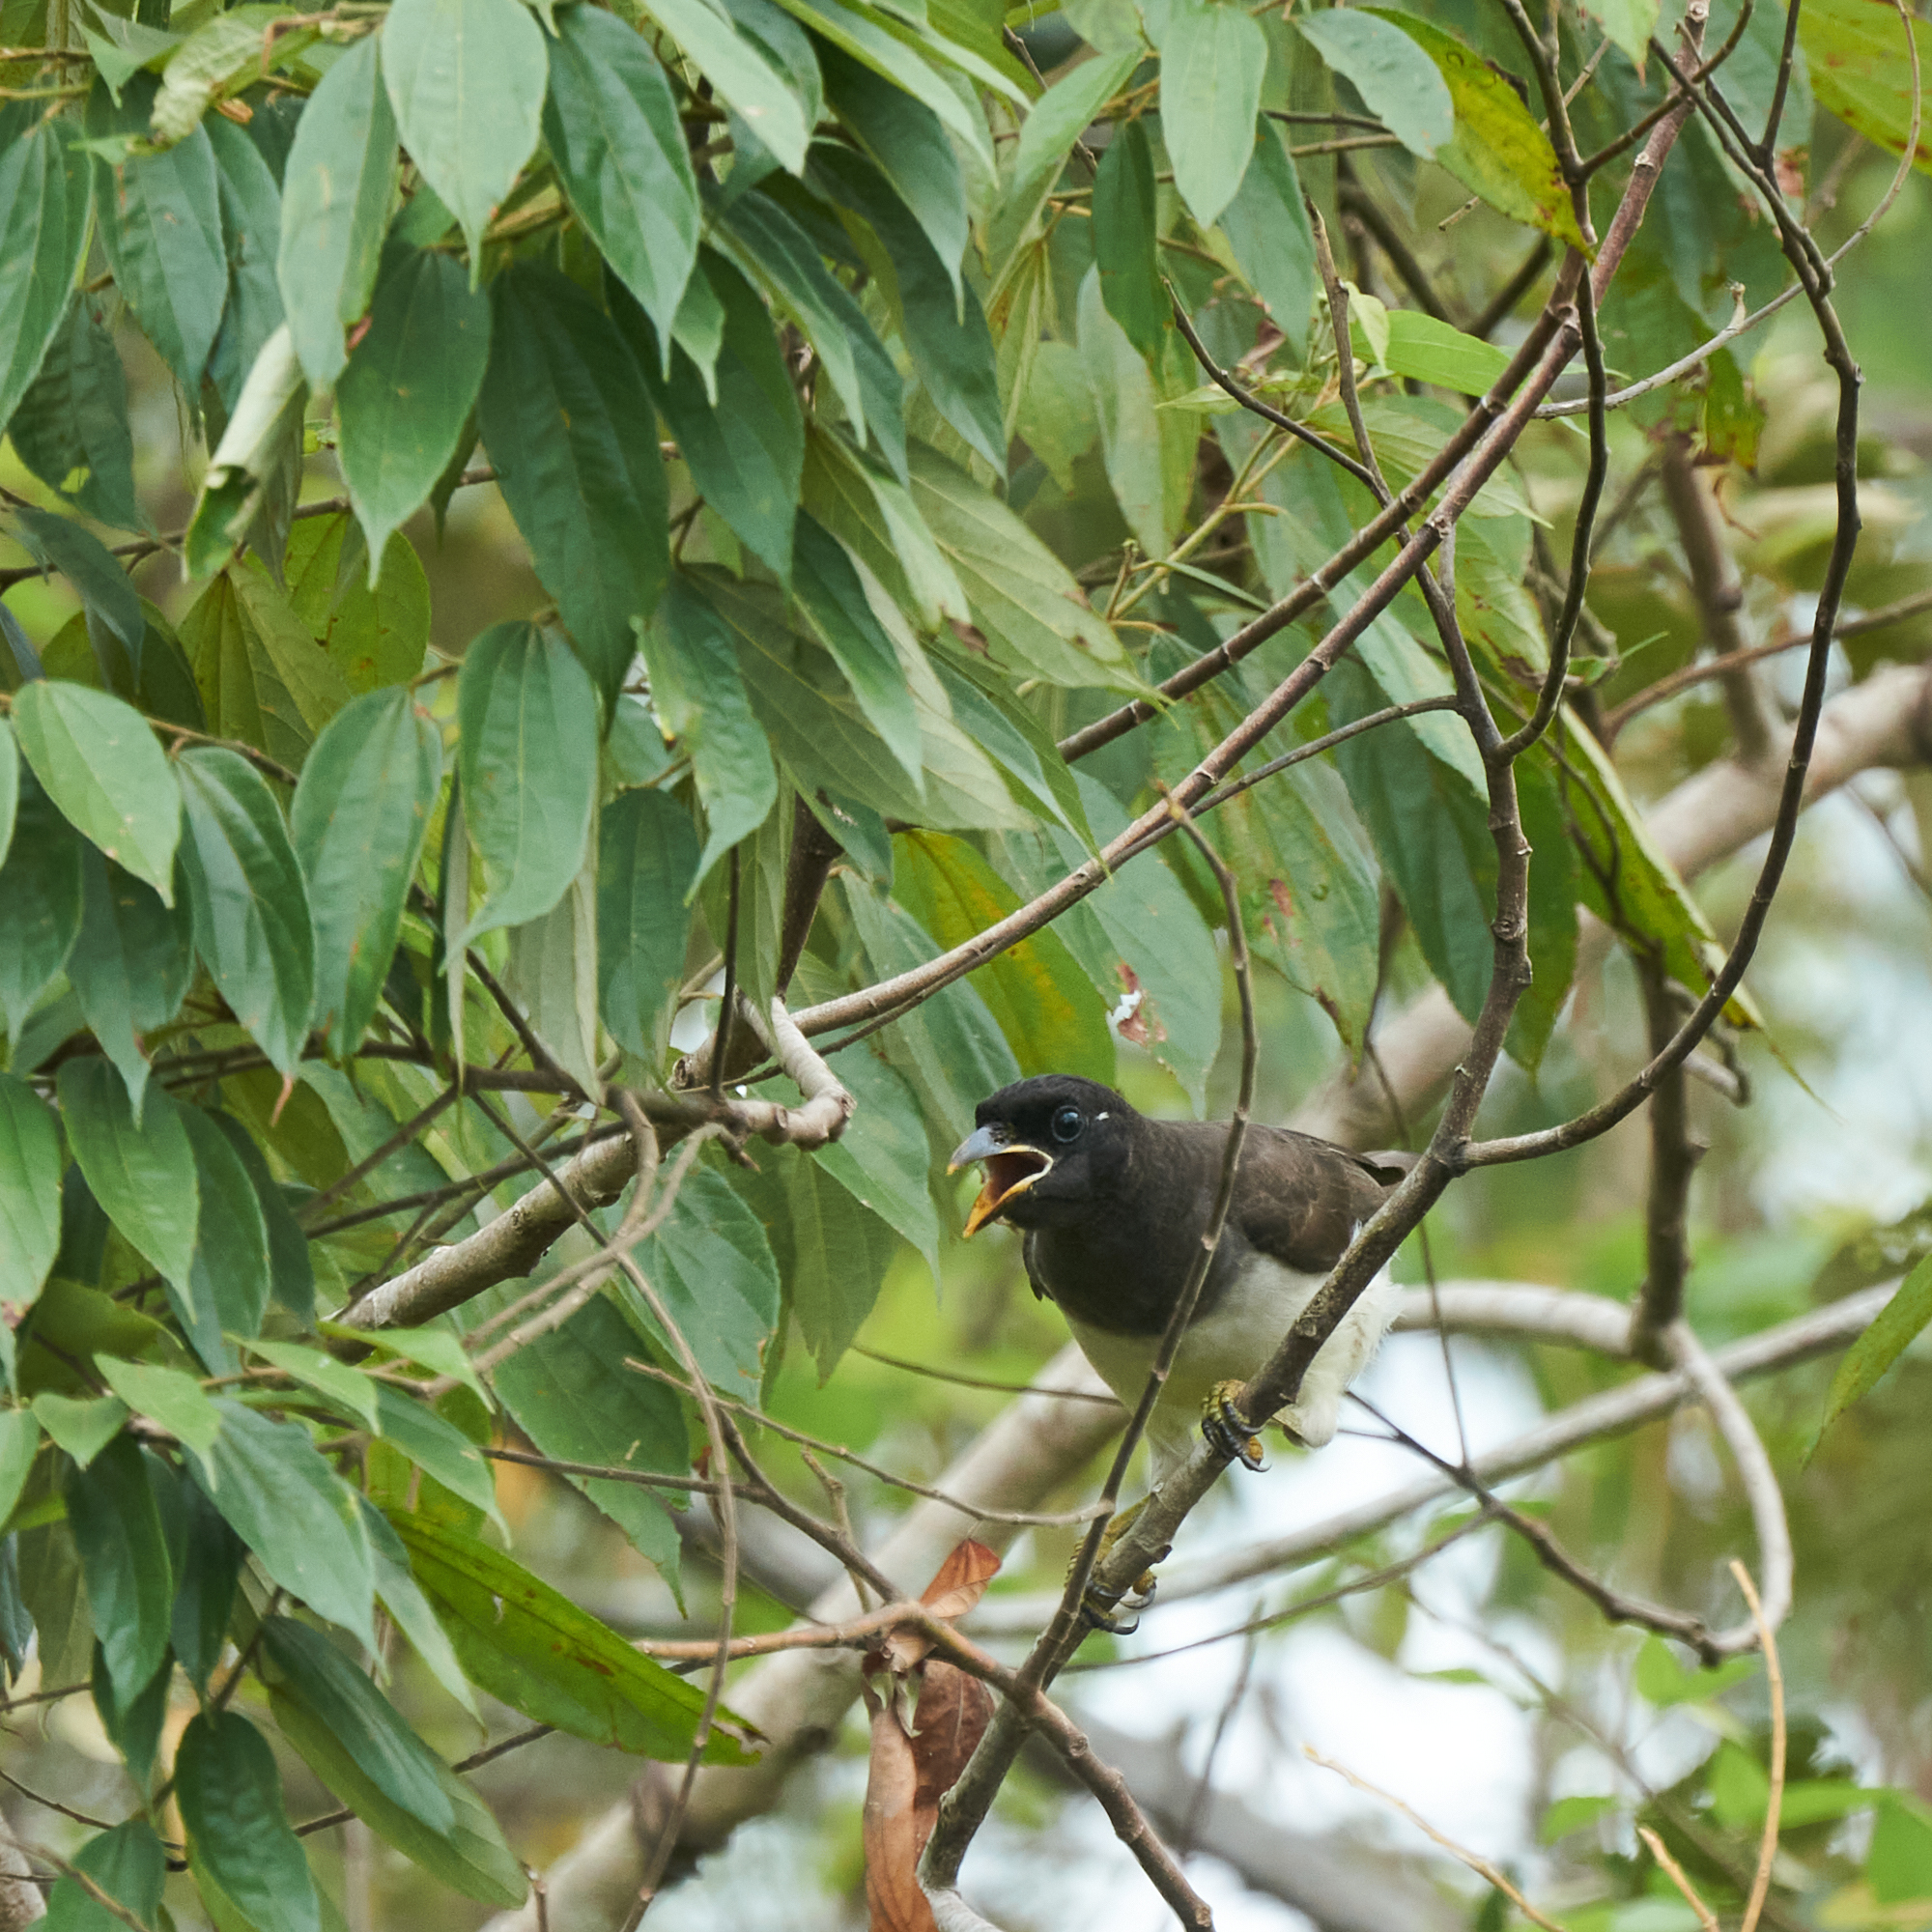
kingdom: Animalia
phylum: Chordata
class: Aves
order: Passeriformes
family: Corvidae
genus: Psilorhinus
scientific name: Psilorhinus morio
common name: Brown jay
